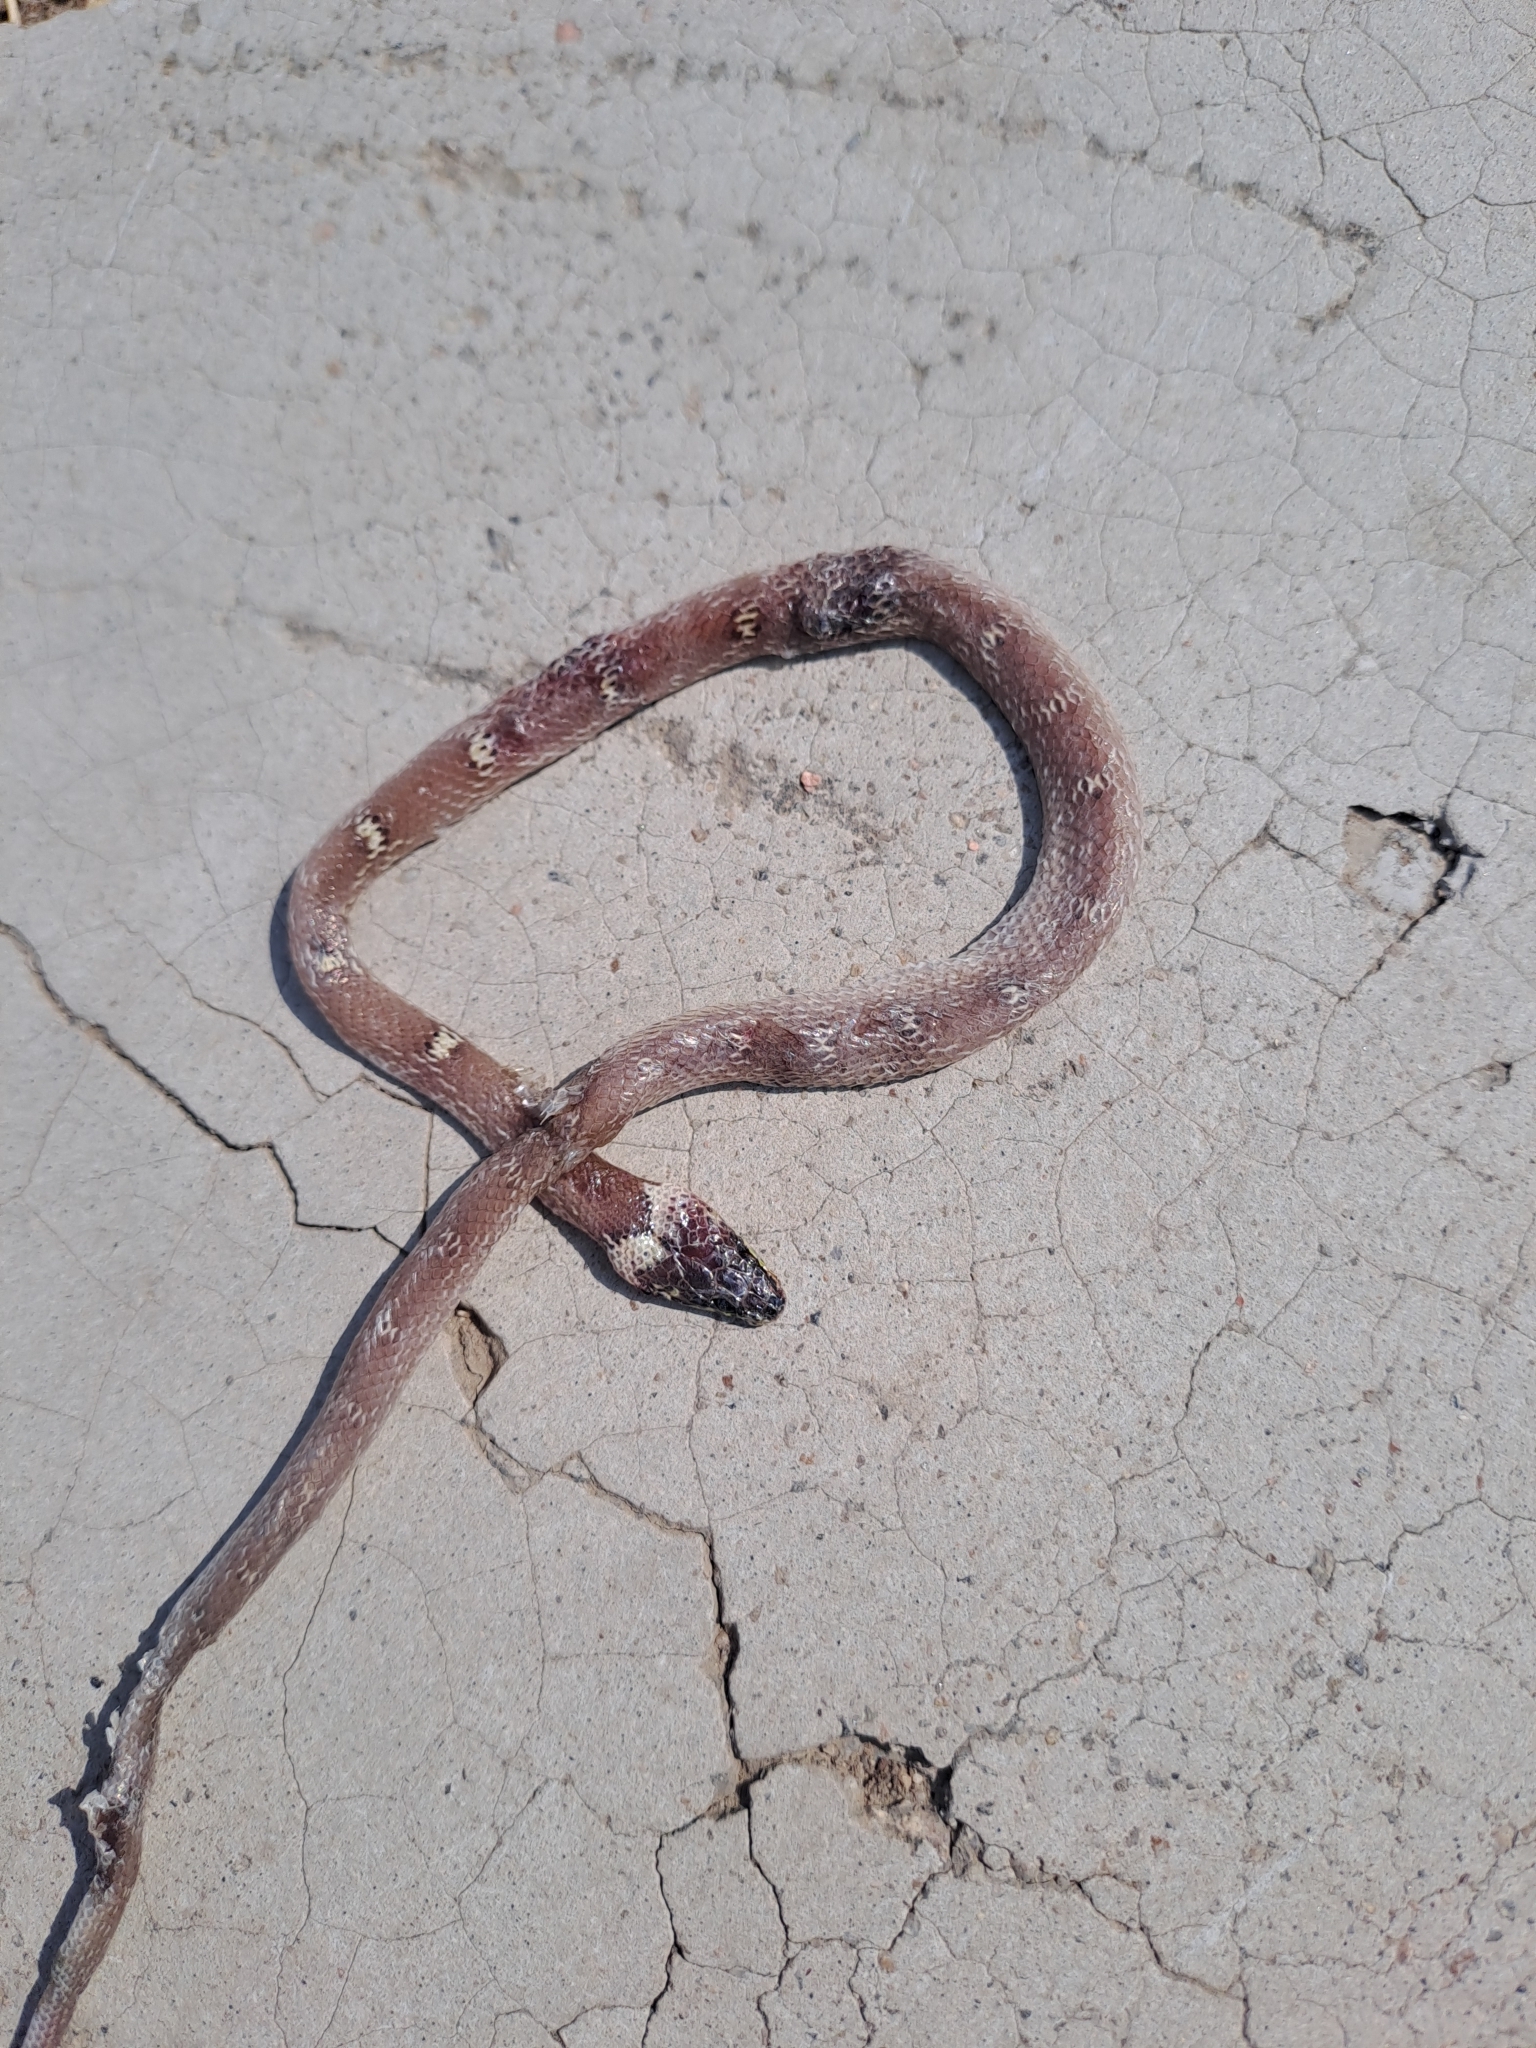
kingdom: Animalia
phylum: Chordata
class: Squamata
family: Colubridae
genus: Lycodon
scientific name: Lycodon aulicus
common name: Common wolf snake
